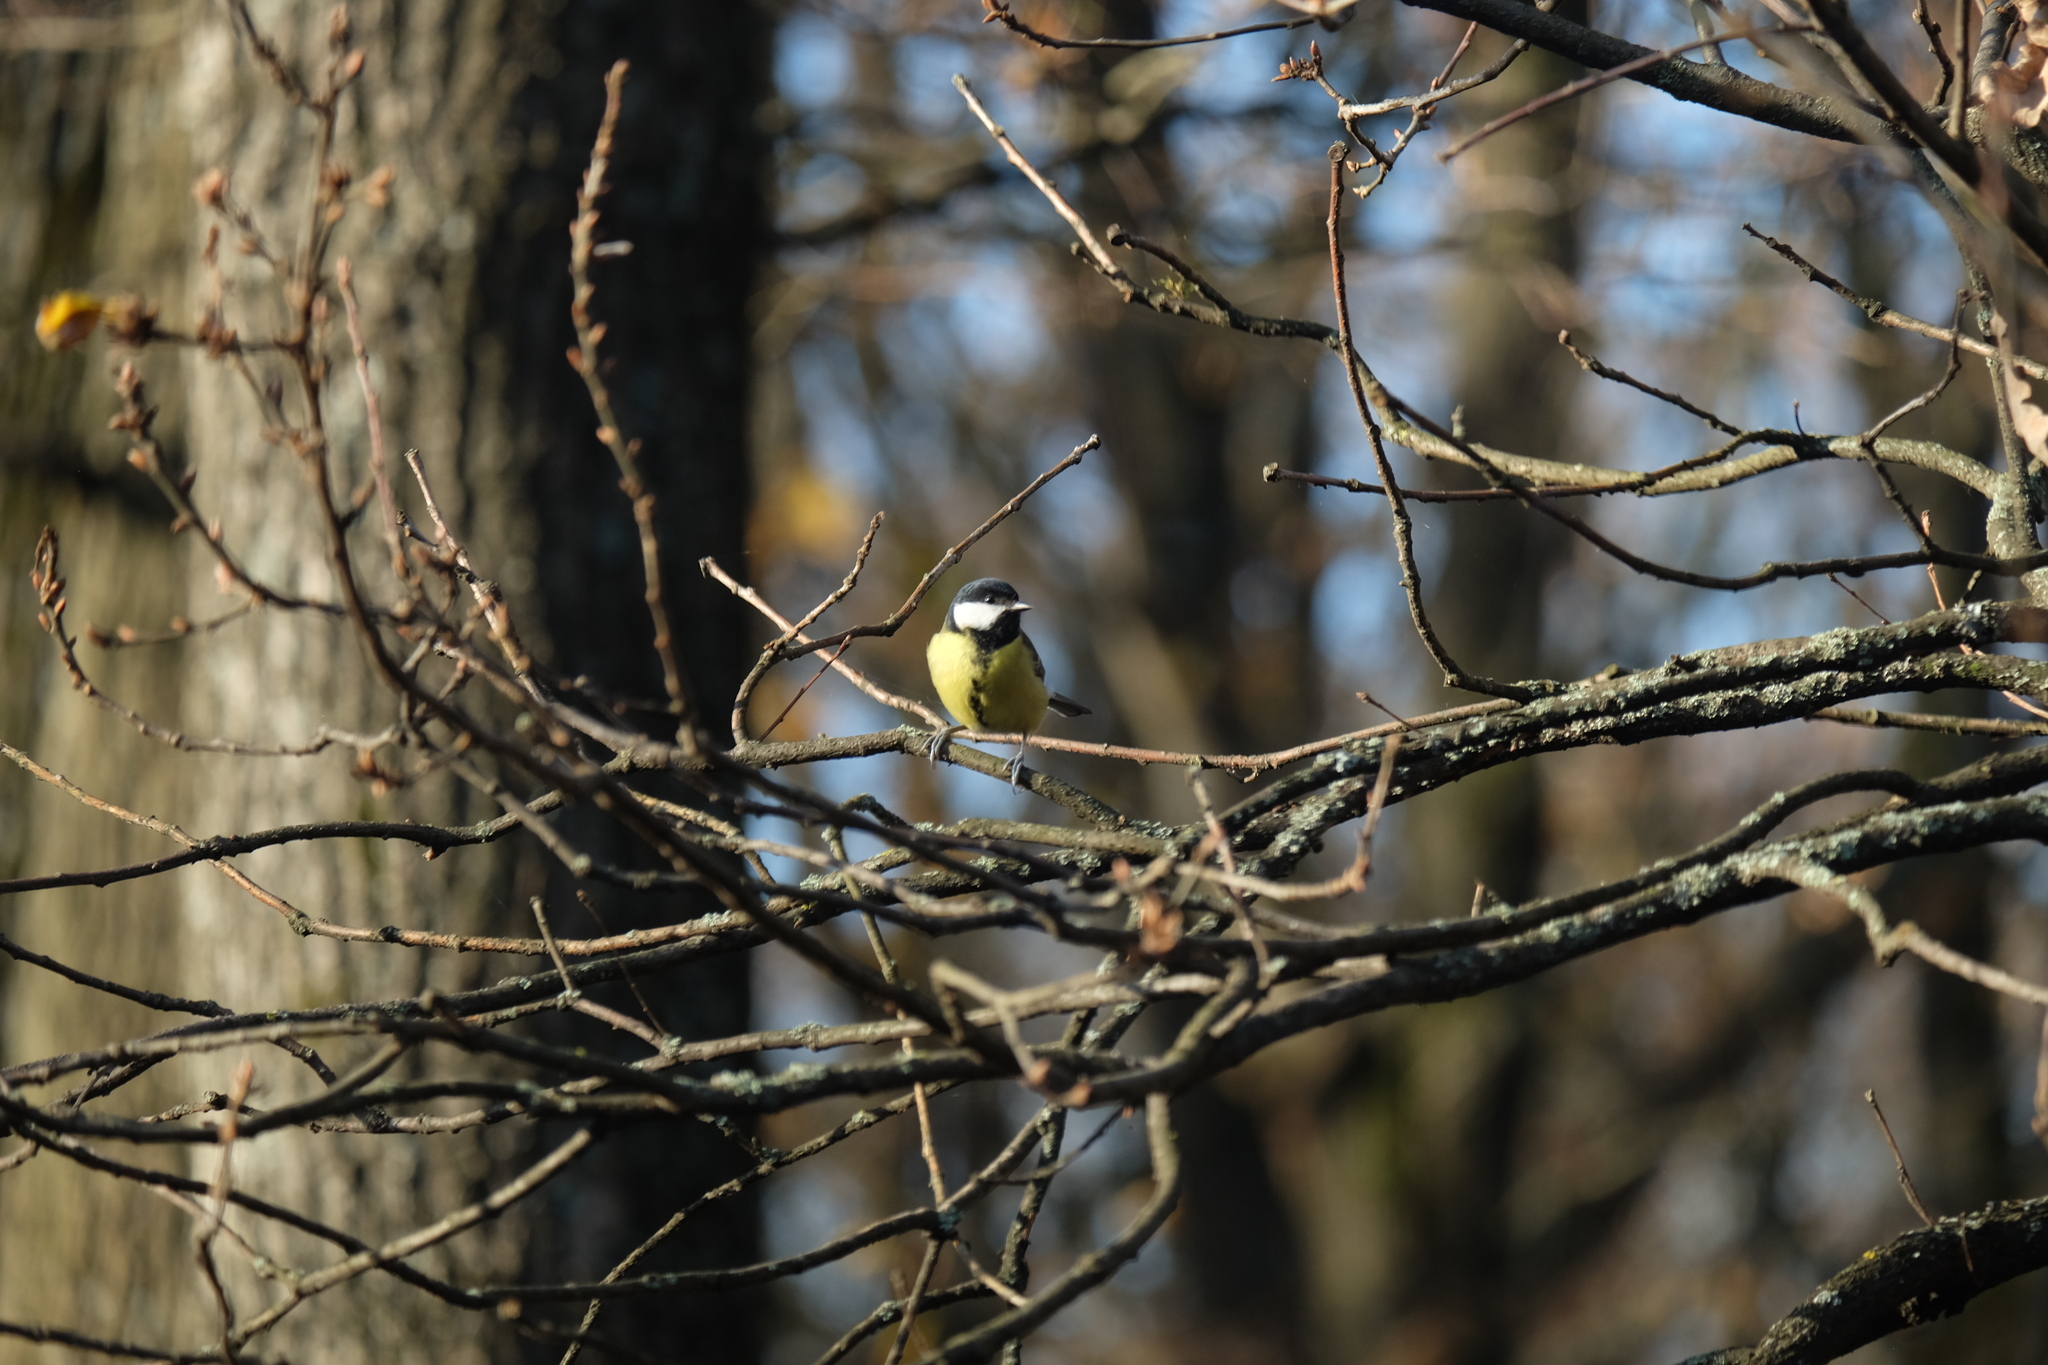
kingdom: Animalia
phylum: Chordata
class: Aves
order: Passeriformes
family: Paridae
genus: Parus
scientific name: Parus major
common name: Great tit
